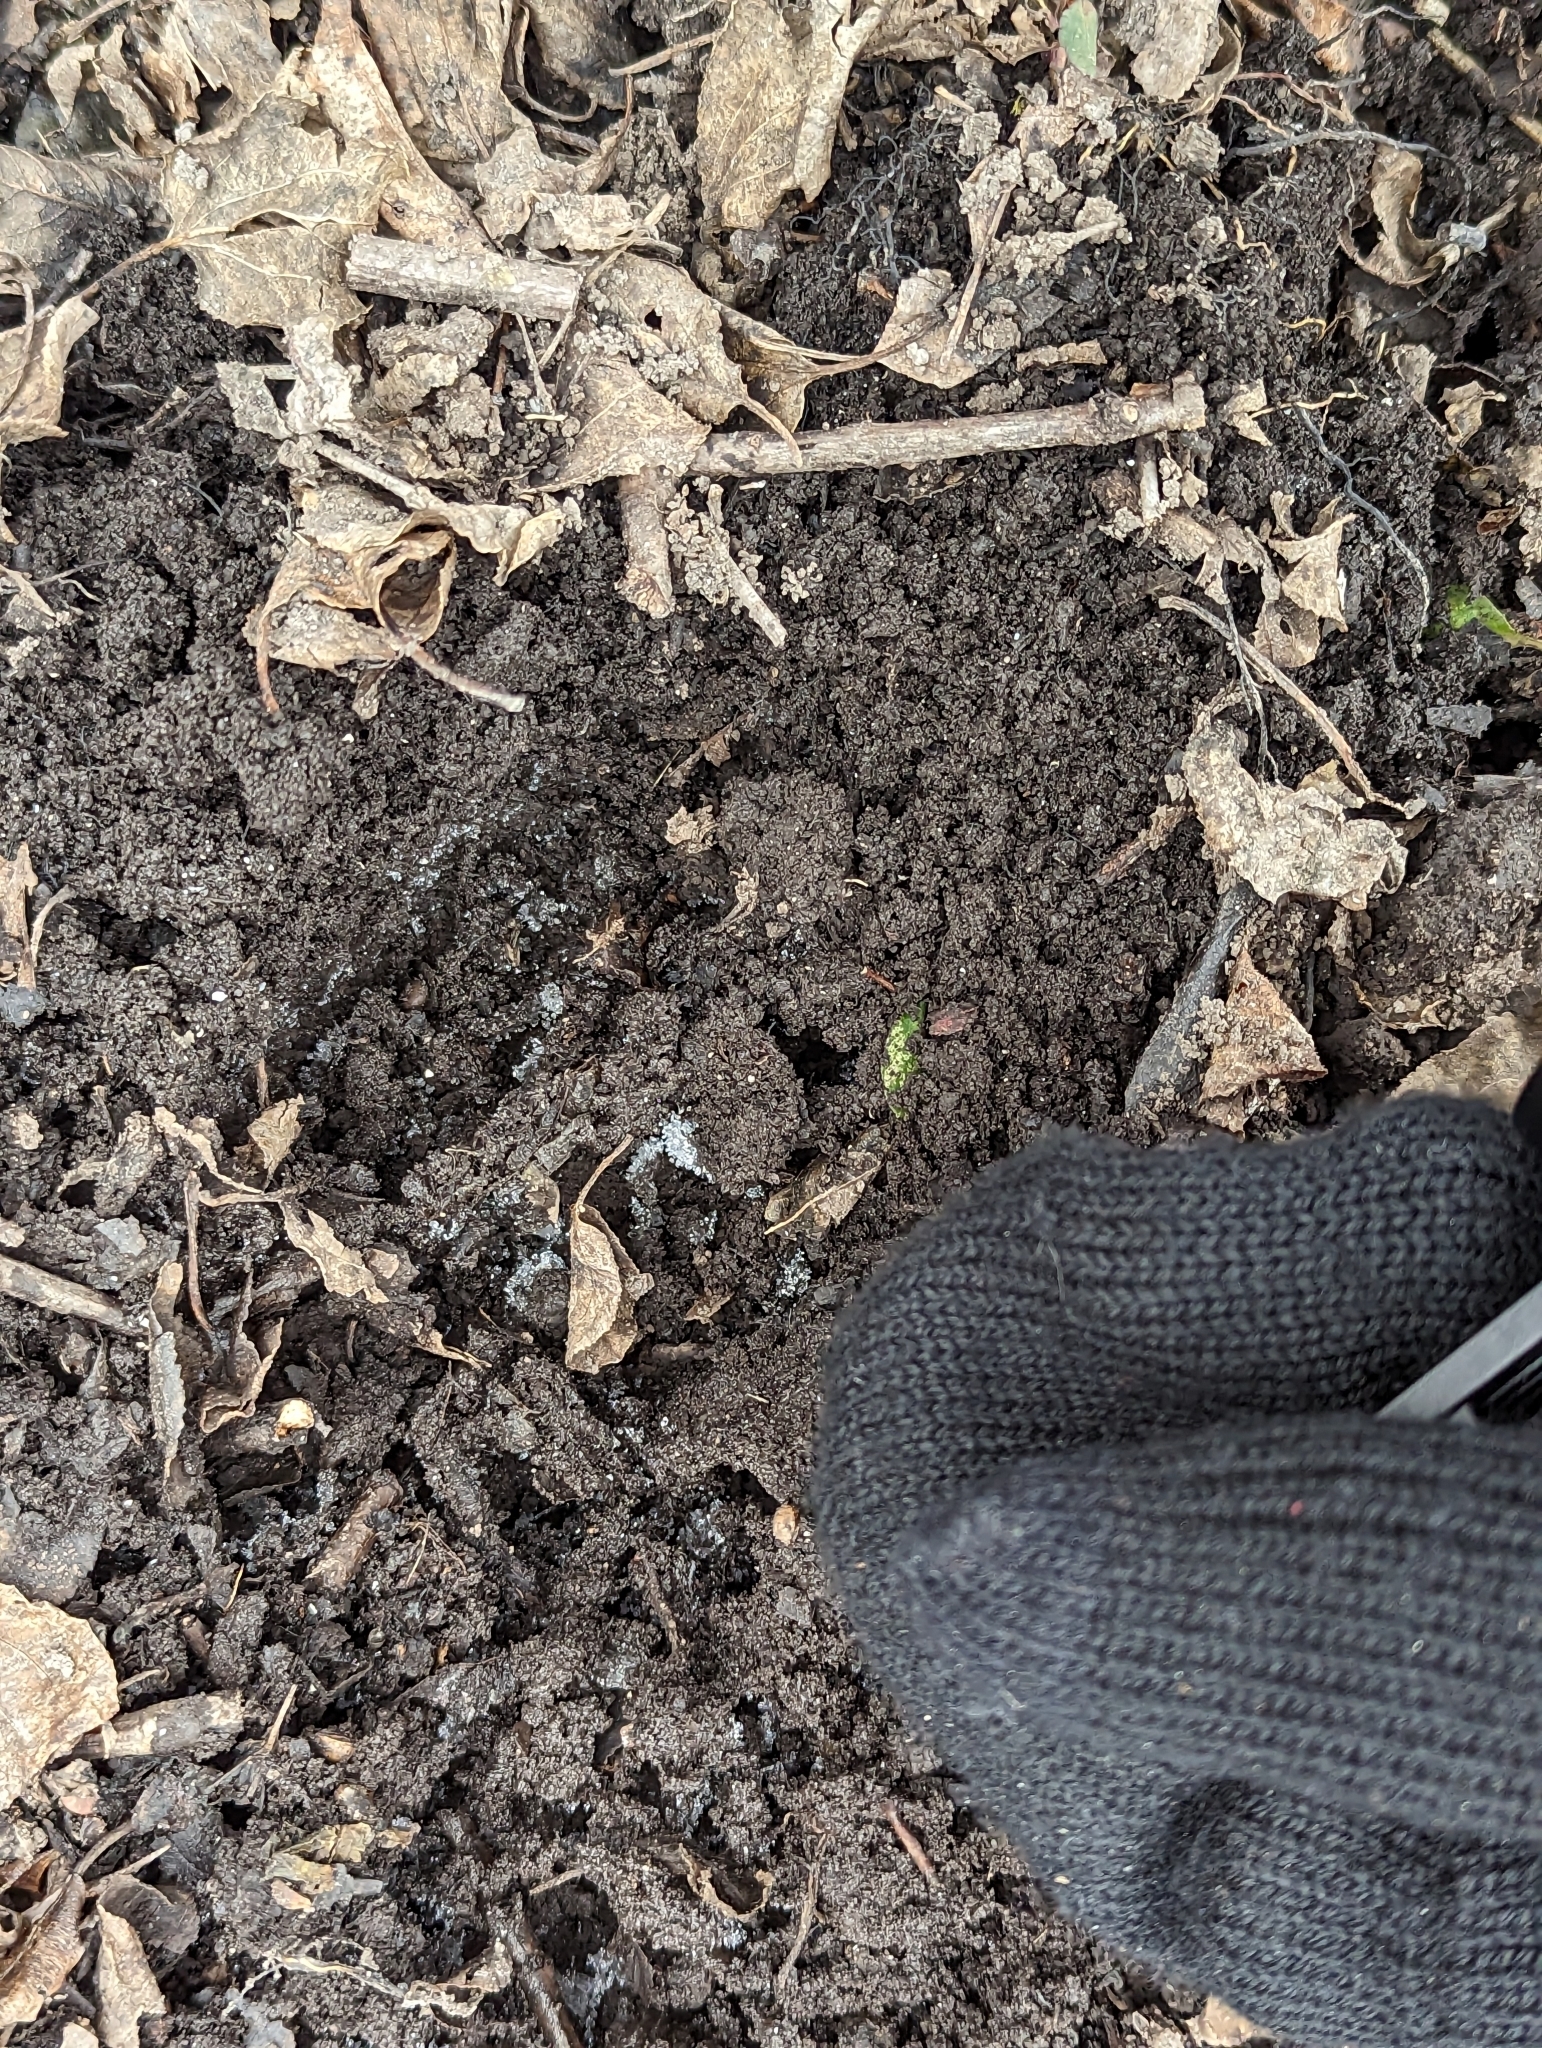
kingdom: Animalia
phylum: Chordata
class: Mammalia
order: Artiodactyla
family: Cervidae
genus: Odocoileus
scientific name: Odocoileus virginianus
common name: White-tailed deer
